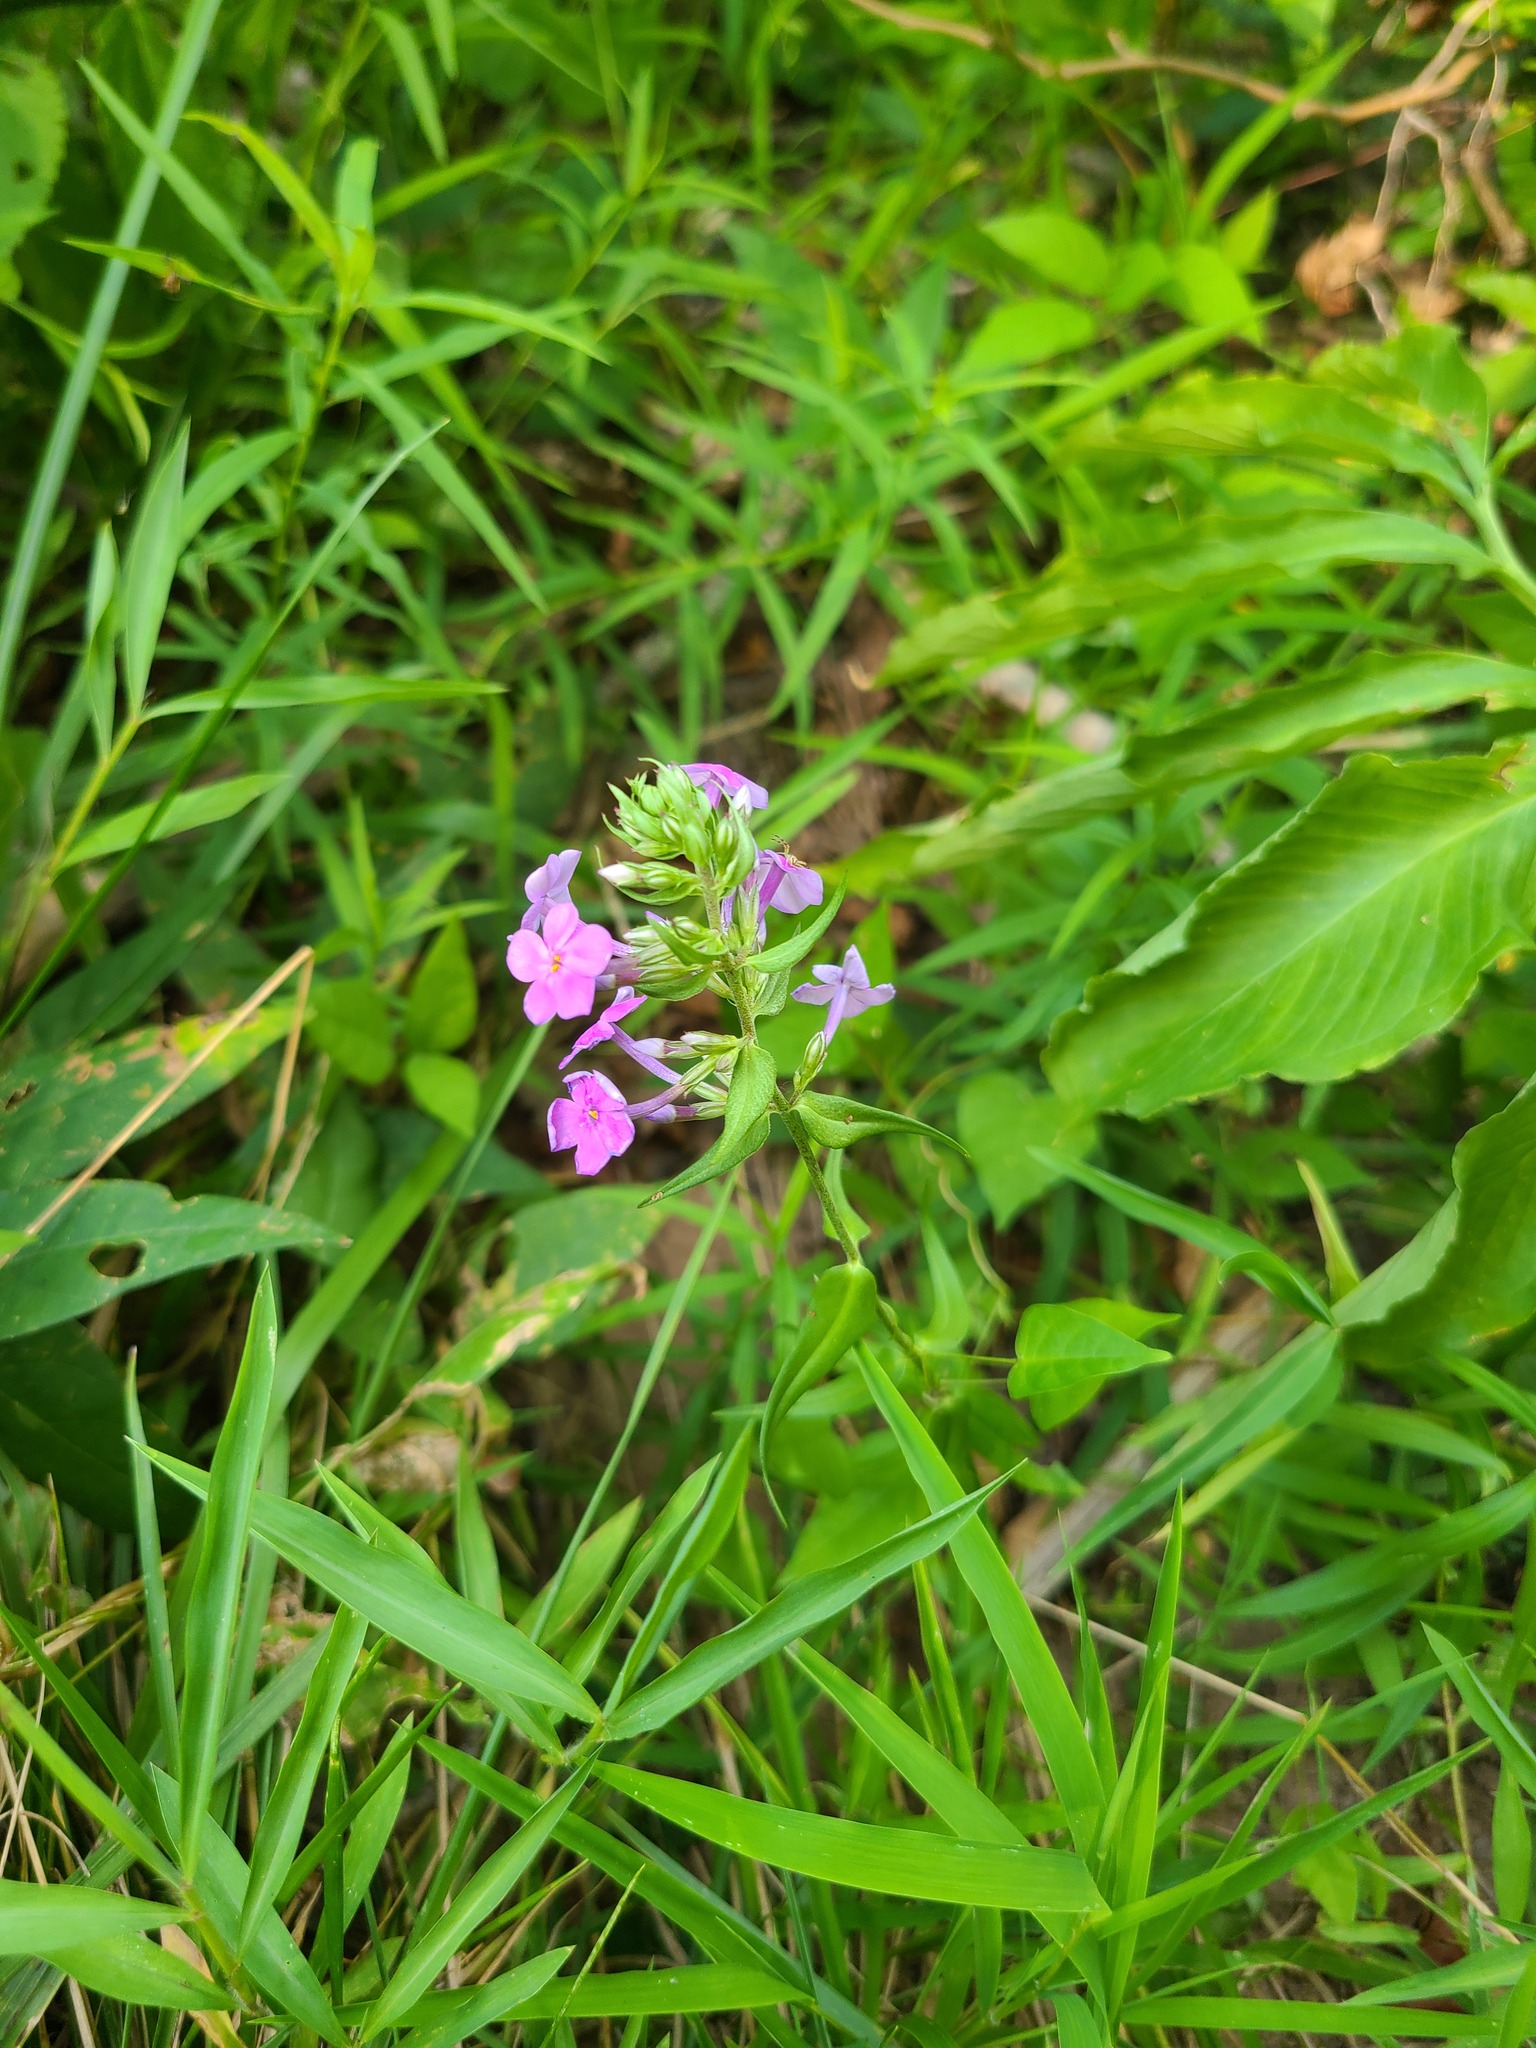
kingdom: Plantae
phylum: Tracheophyta
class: Magnoliopsida
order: Ericales
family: Polemoniaceae
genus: Phlox
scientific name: Phlox maculata
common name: Meadow phlox
